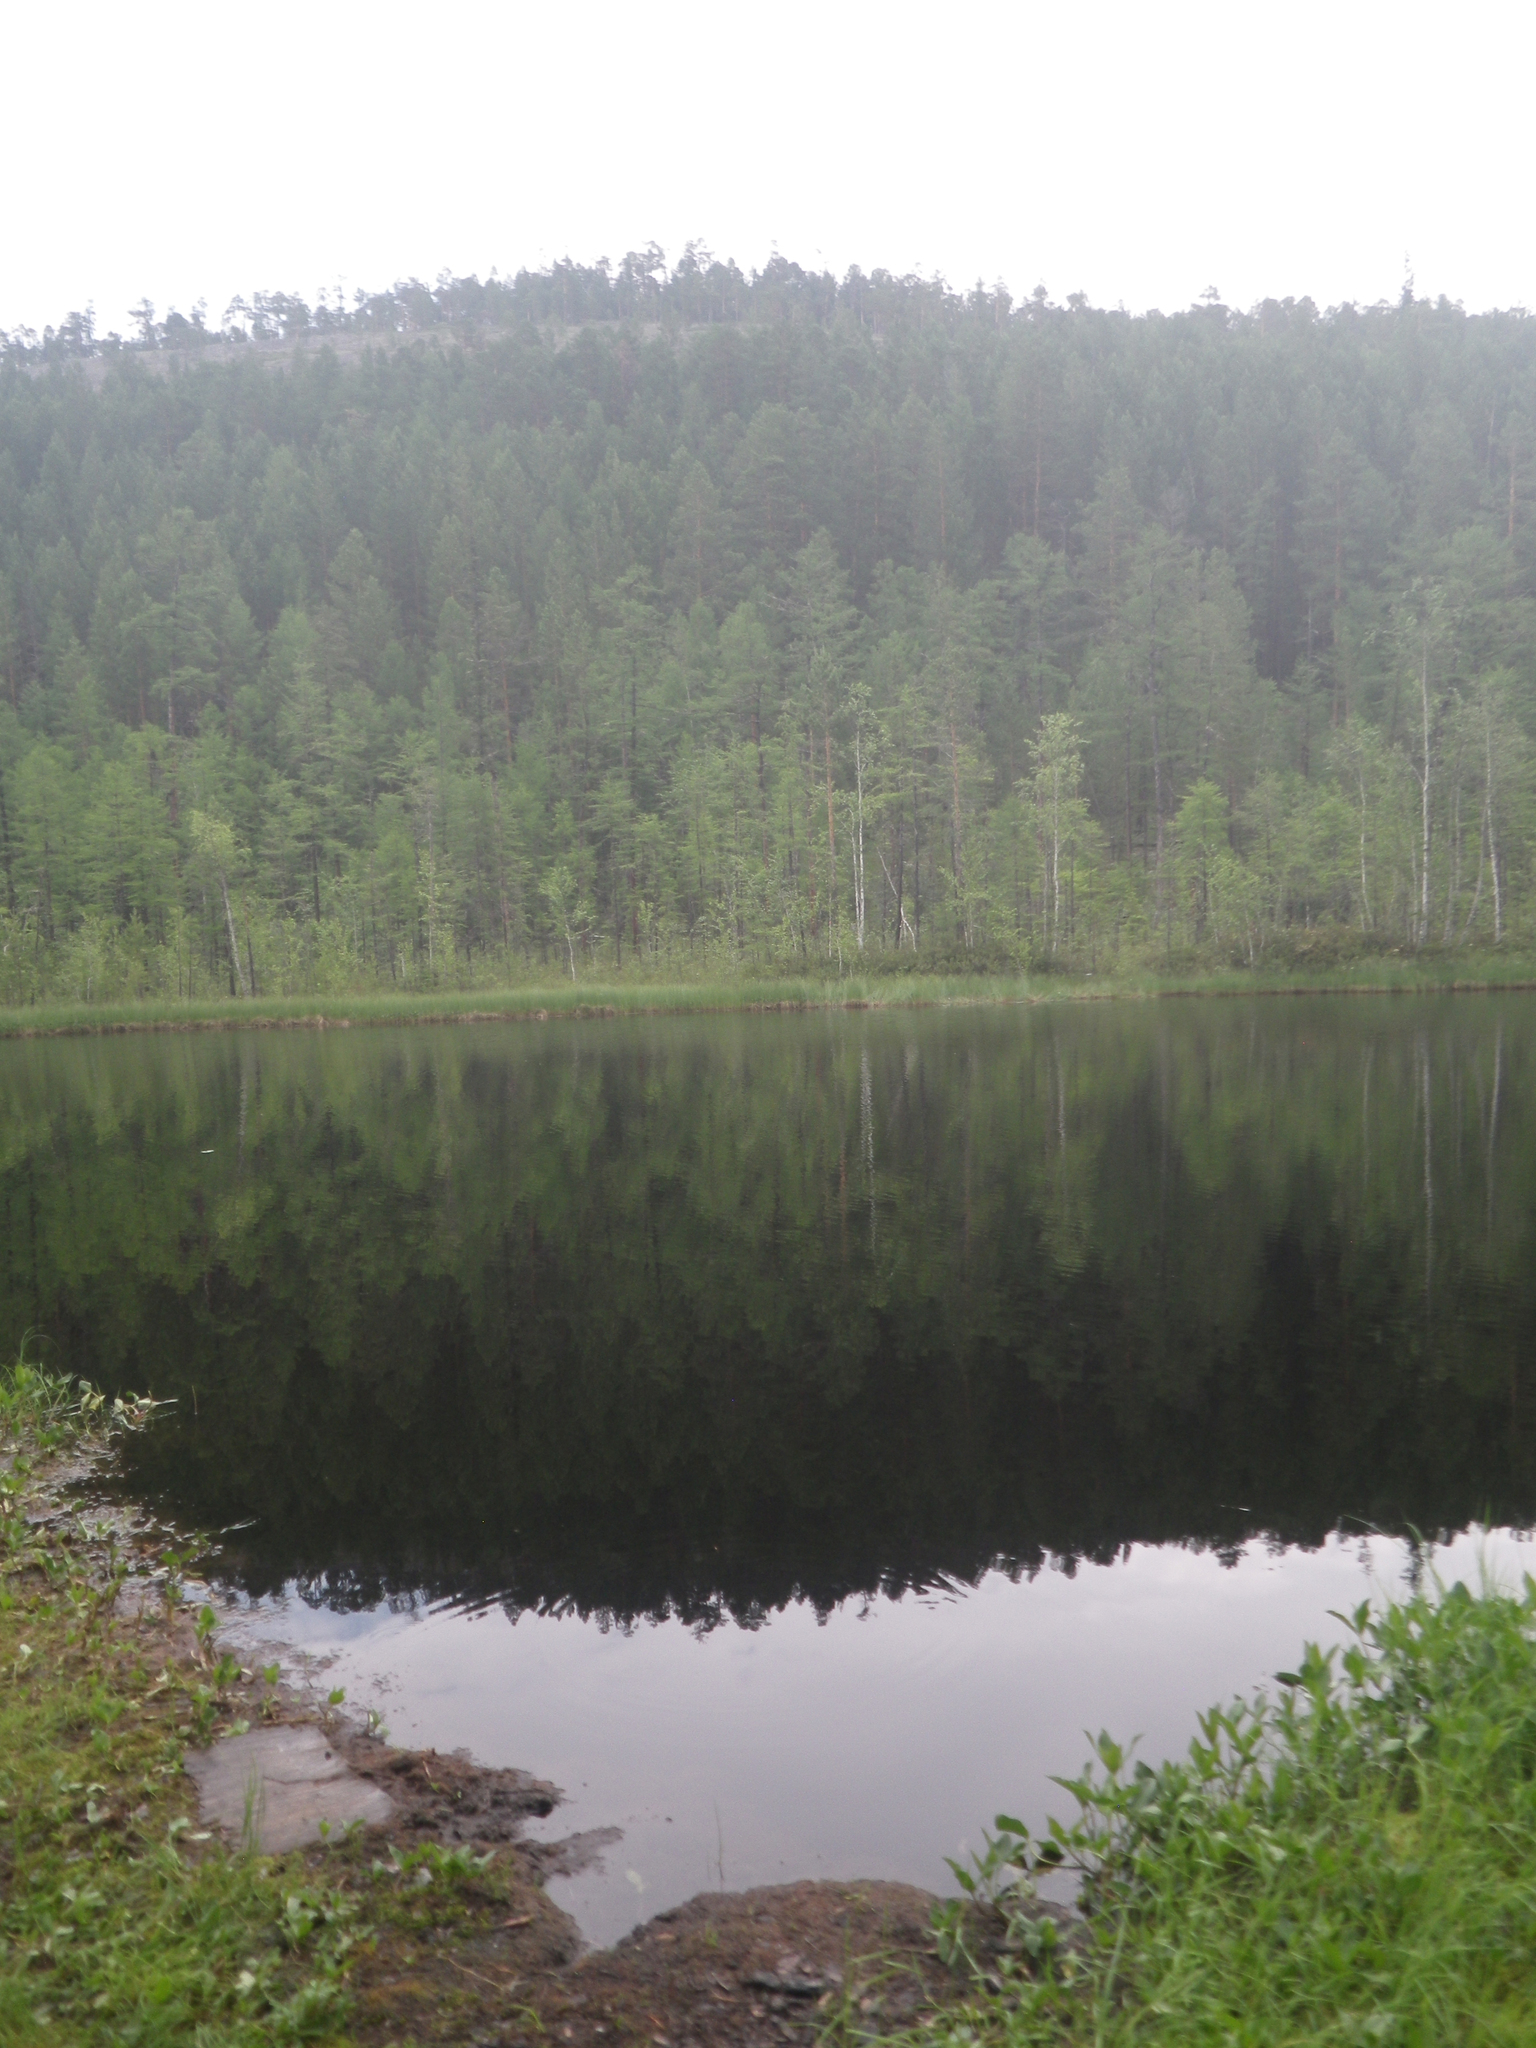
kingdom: Plantae
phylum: Tracheophyta
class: Pinopsida
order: Pinales
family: Pinaceae
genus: Pinus
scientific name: Pinus sylvestris
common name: Scots pine
